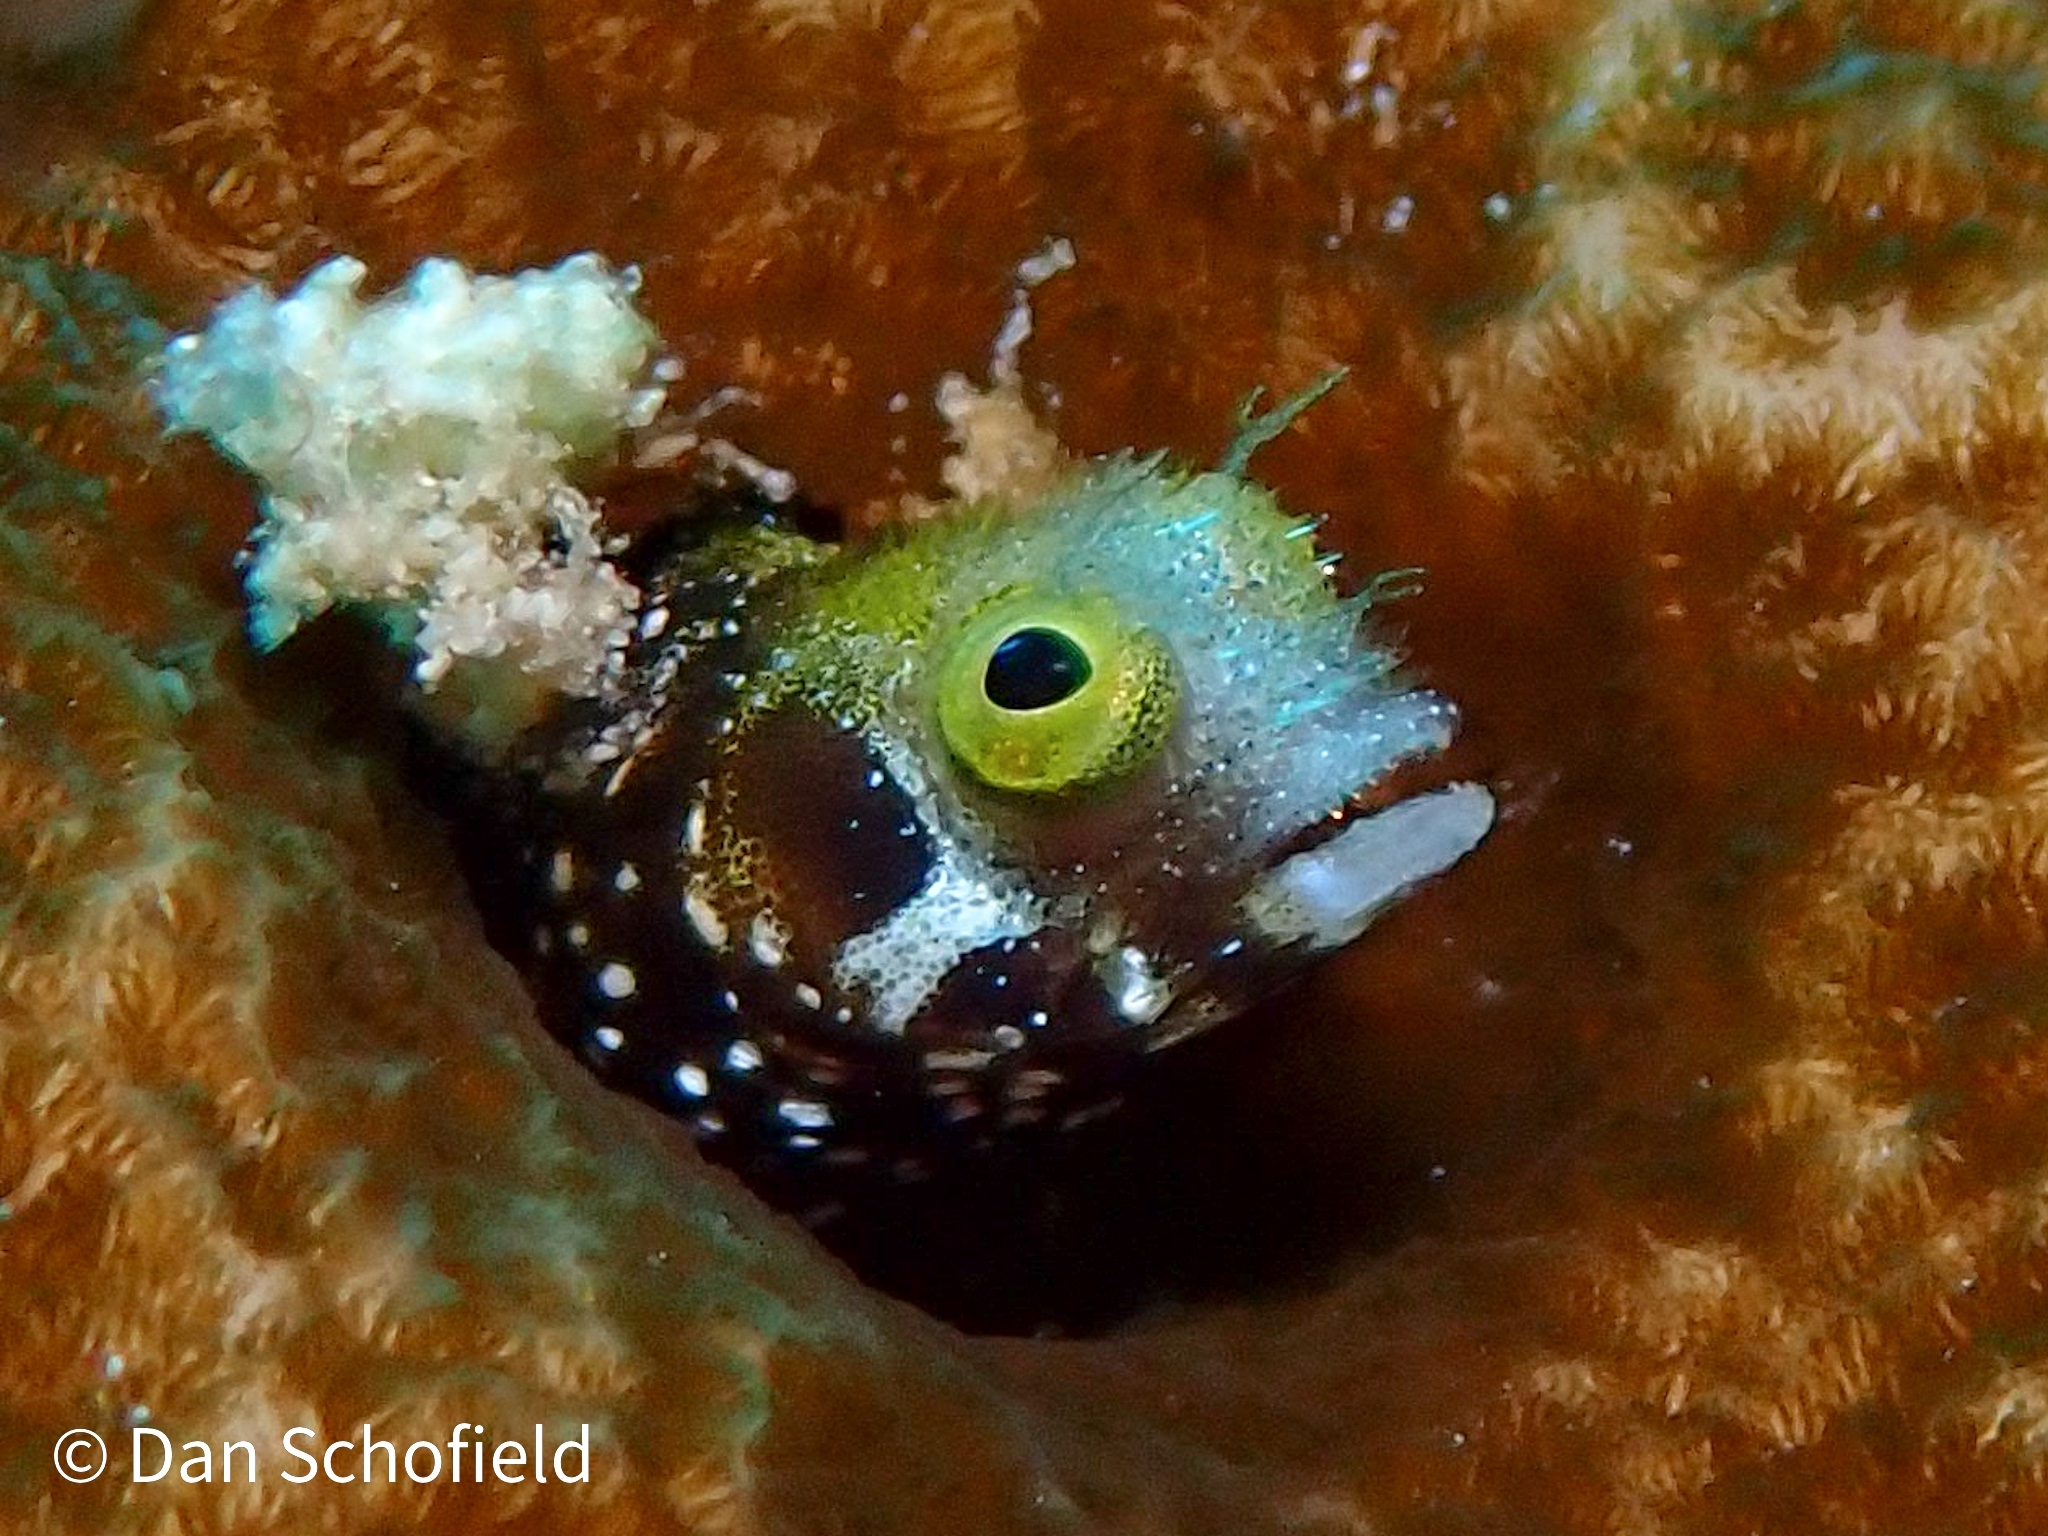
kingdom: Animalia
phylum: Chordata
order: Perciformes
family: Chaenopsidae
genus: Acanthemblemaria
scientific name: Acanthemblemaria spinosa
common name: Spinyhead blenny
